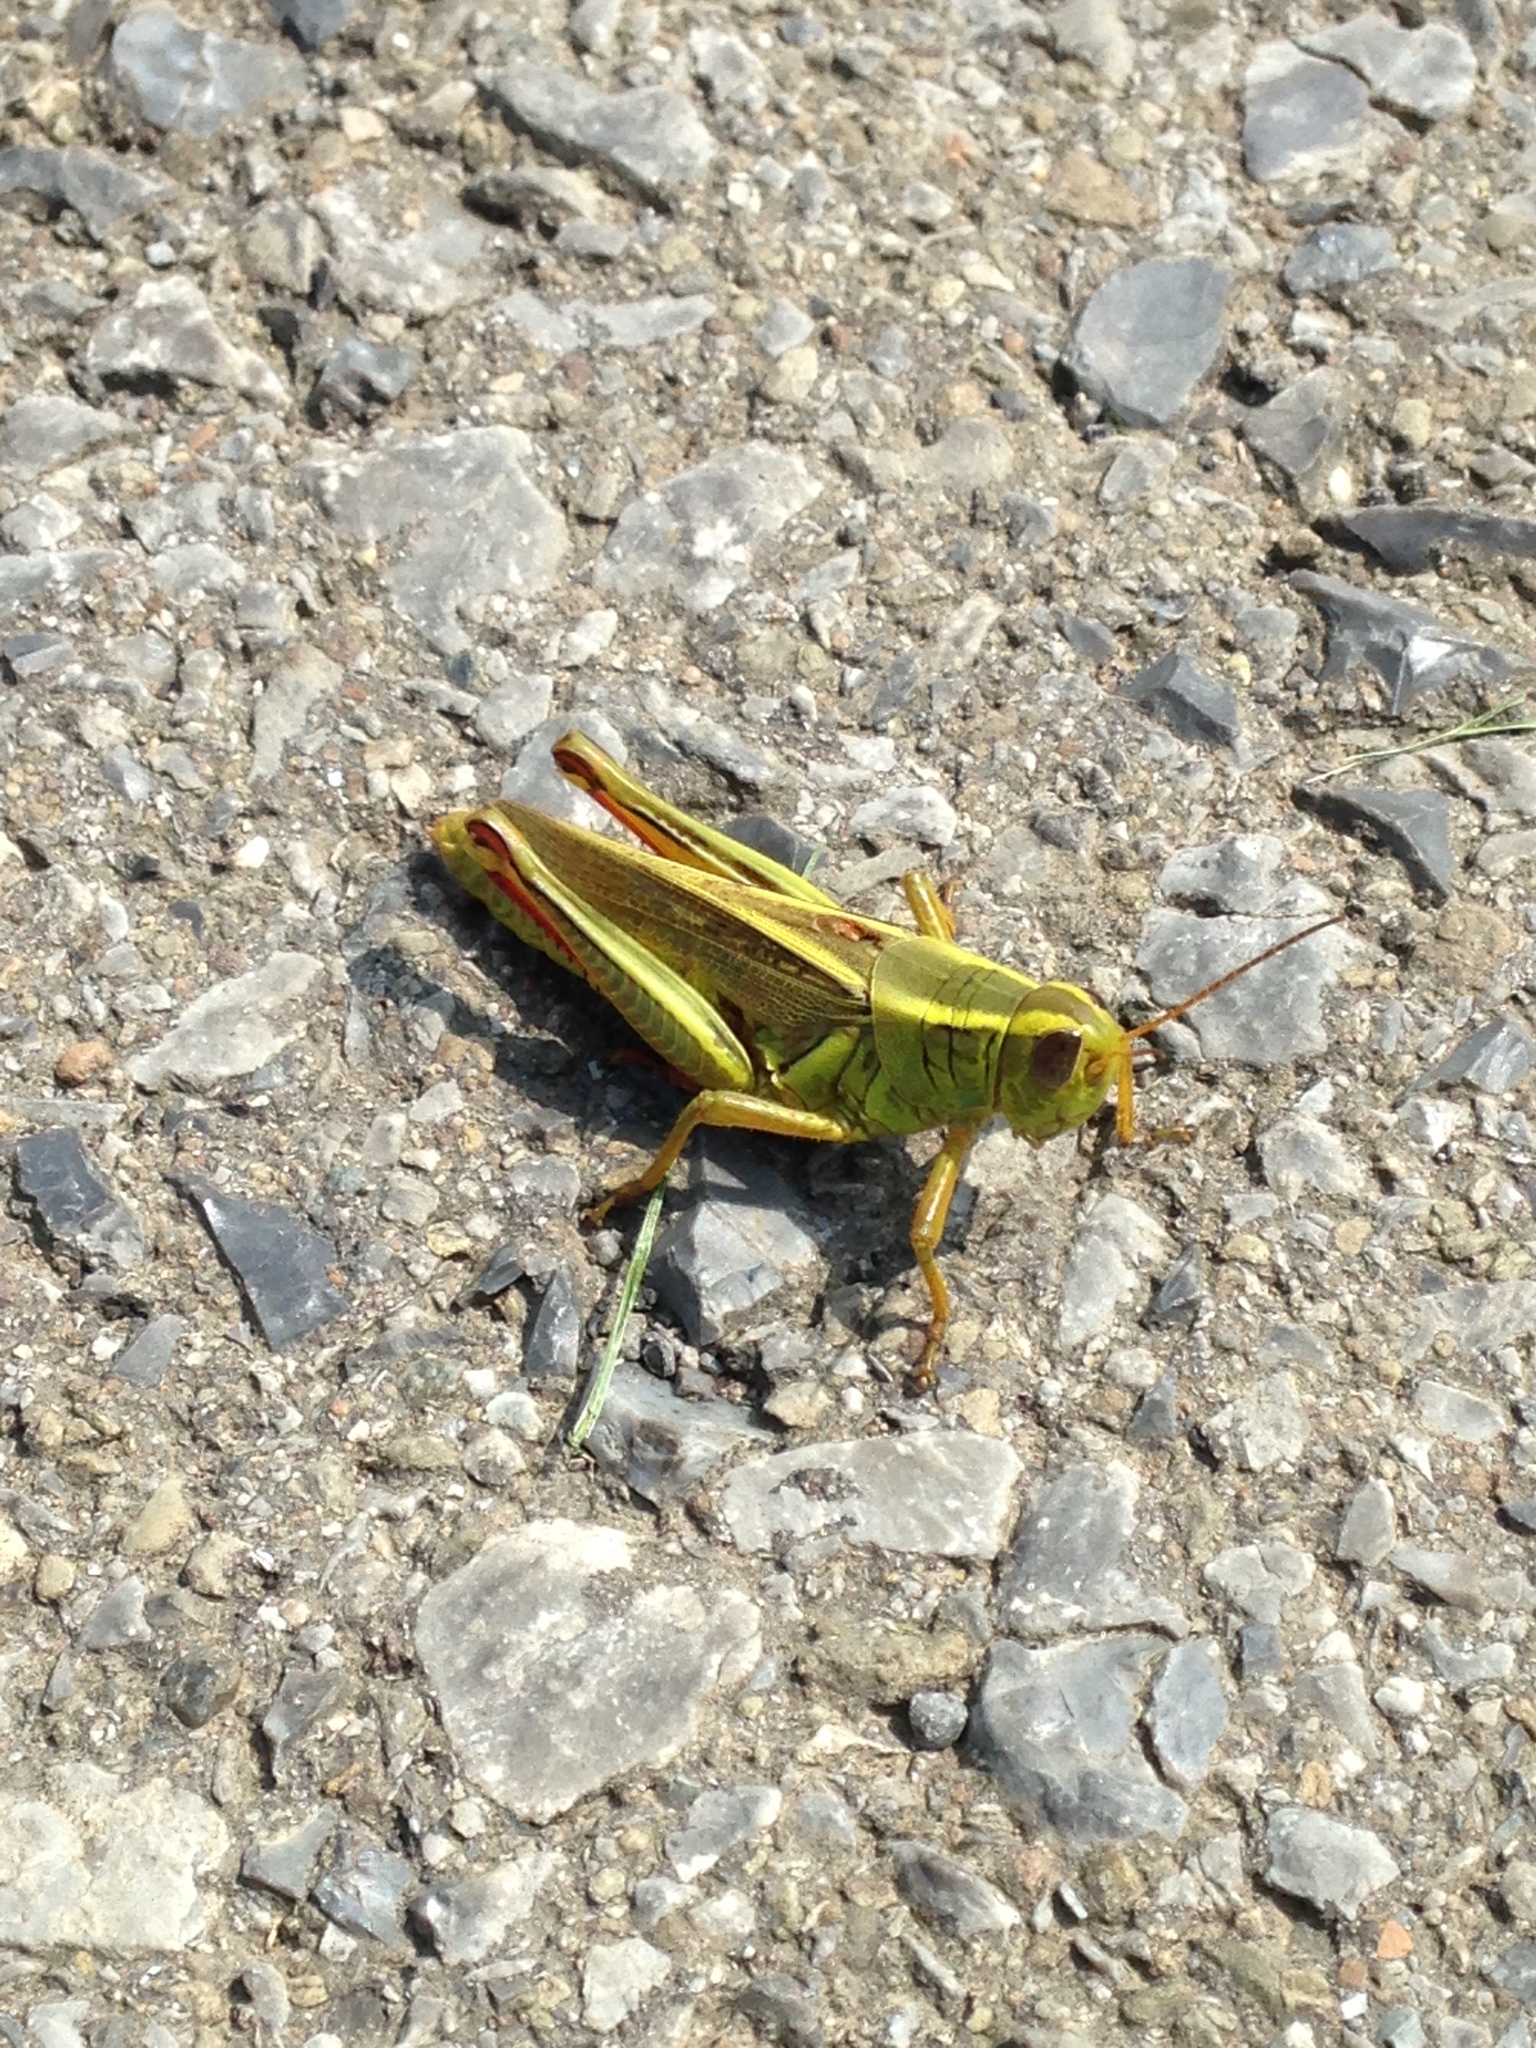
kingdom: Animalia
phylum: Arthropoda
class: Insecta
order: Orthoptera
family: Acrididae
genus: Melanoplus
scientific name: Melanoplus bivittatus
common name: Two-striped grasshopper
